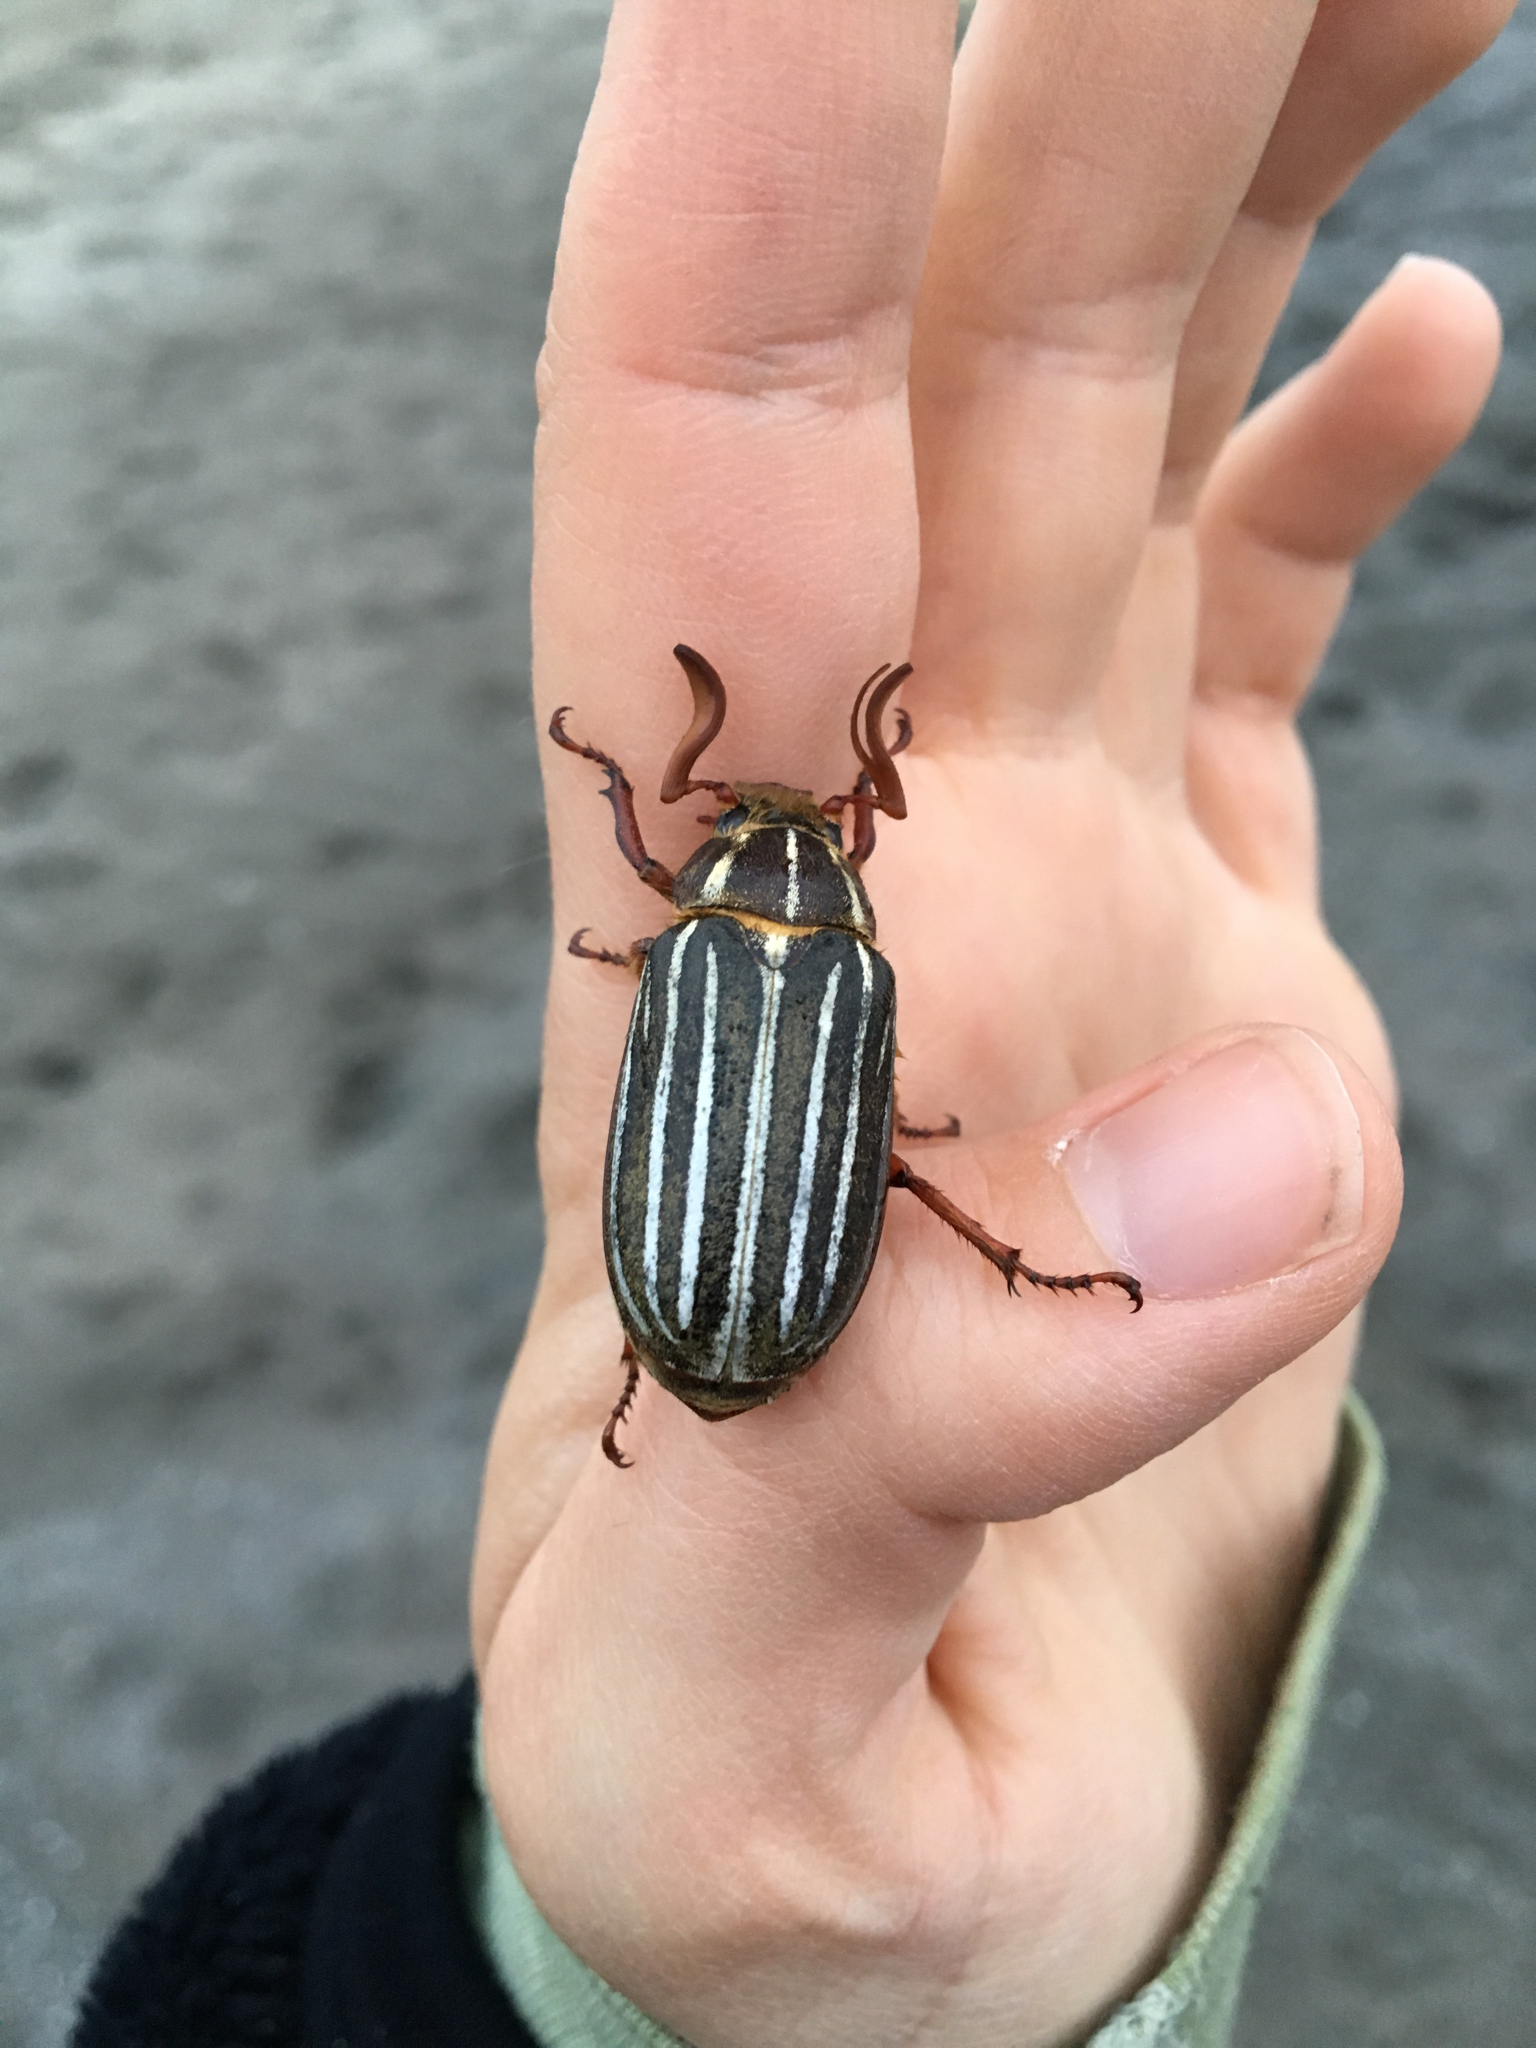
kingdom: Animalia
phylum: Arthropoda
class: Insecta
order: Coleoptera
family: Scarabaeidae
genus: Polyphylla
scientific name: Polyphylla decemlineata
